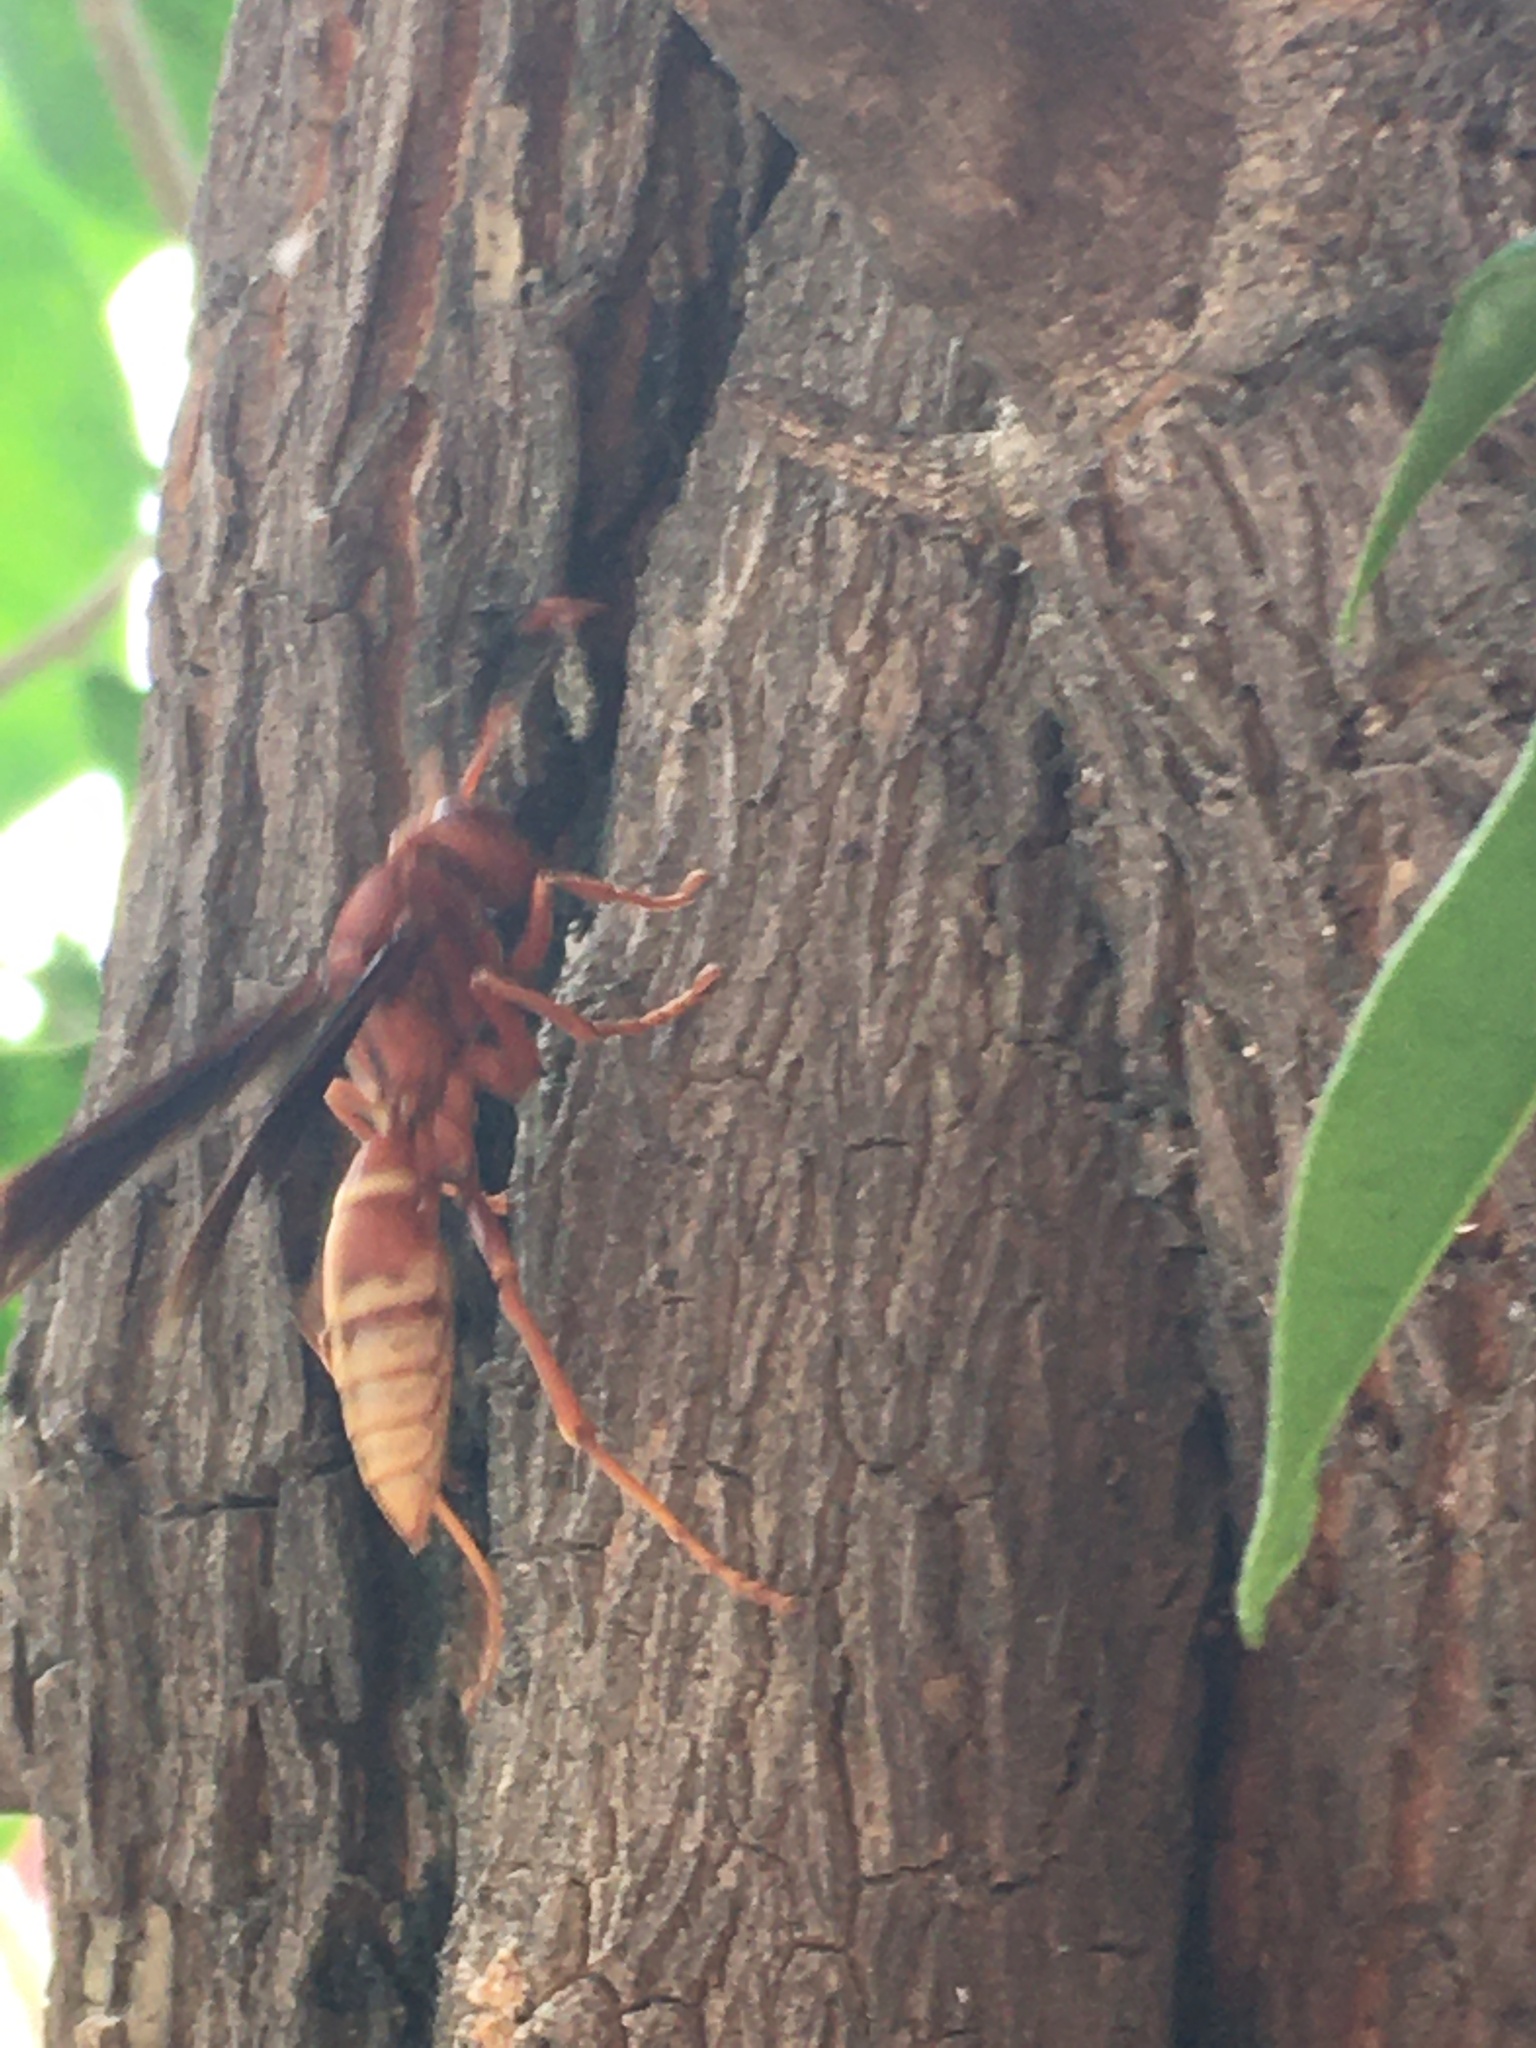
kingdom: Animalia
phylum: Arthropoda
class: Insecta
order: Hymenoptera
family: Eumenidae
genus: Polistes
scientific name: Polistes mexicanus
